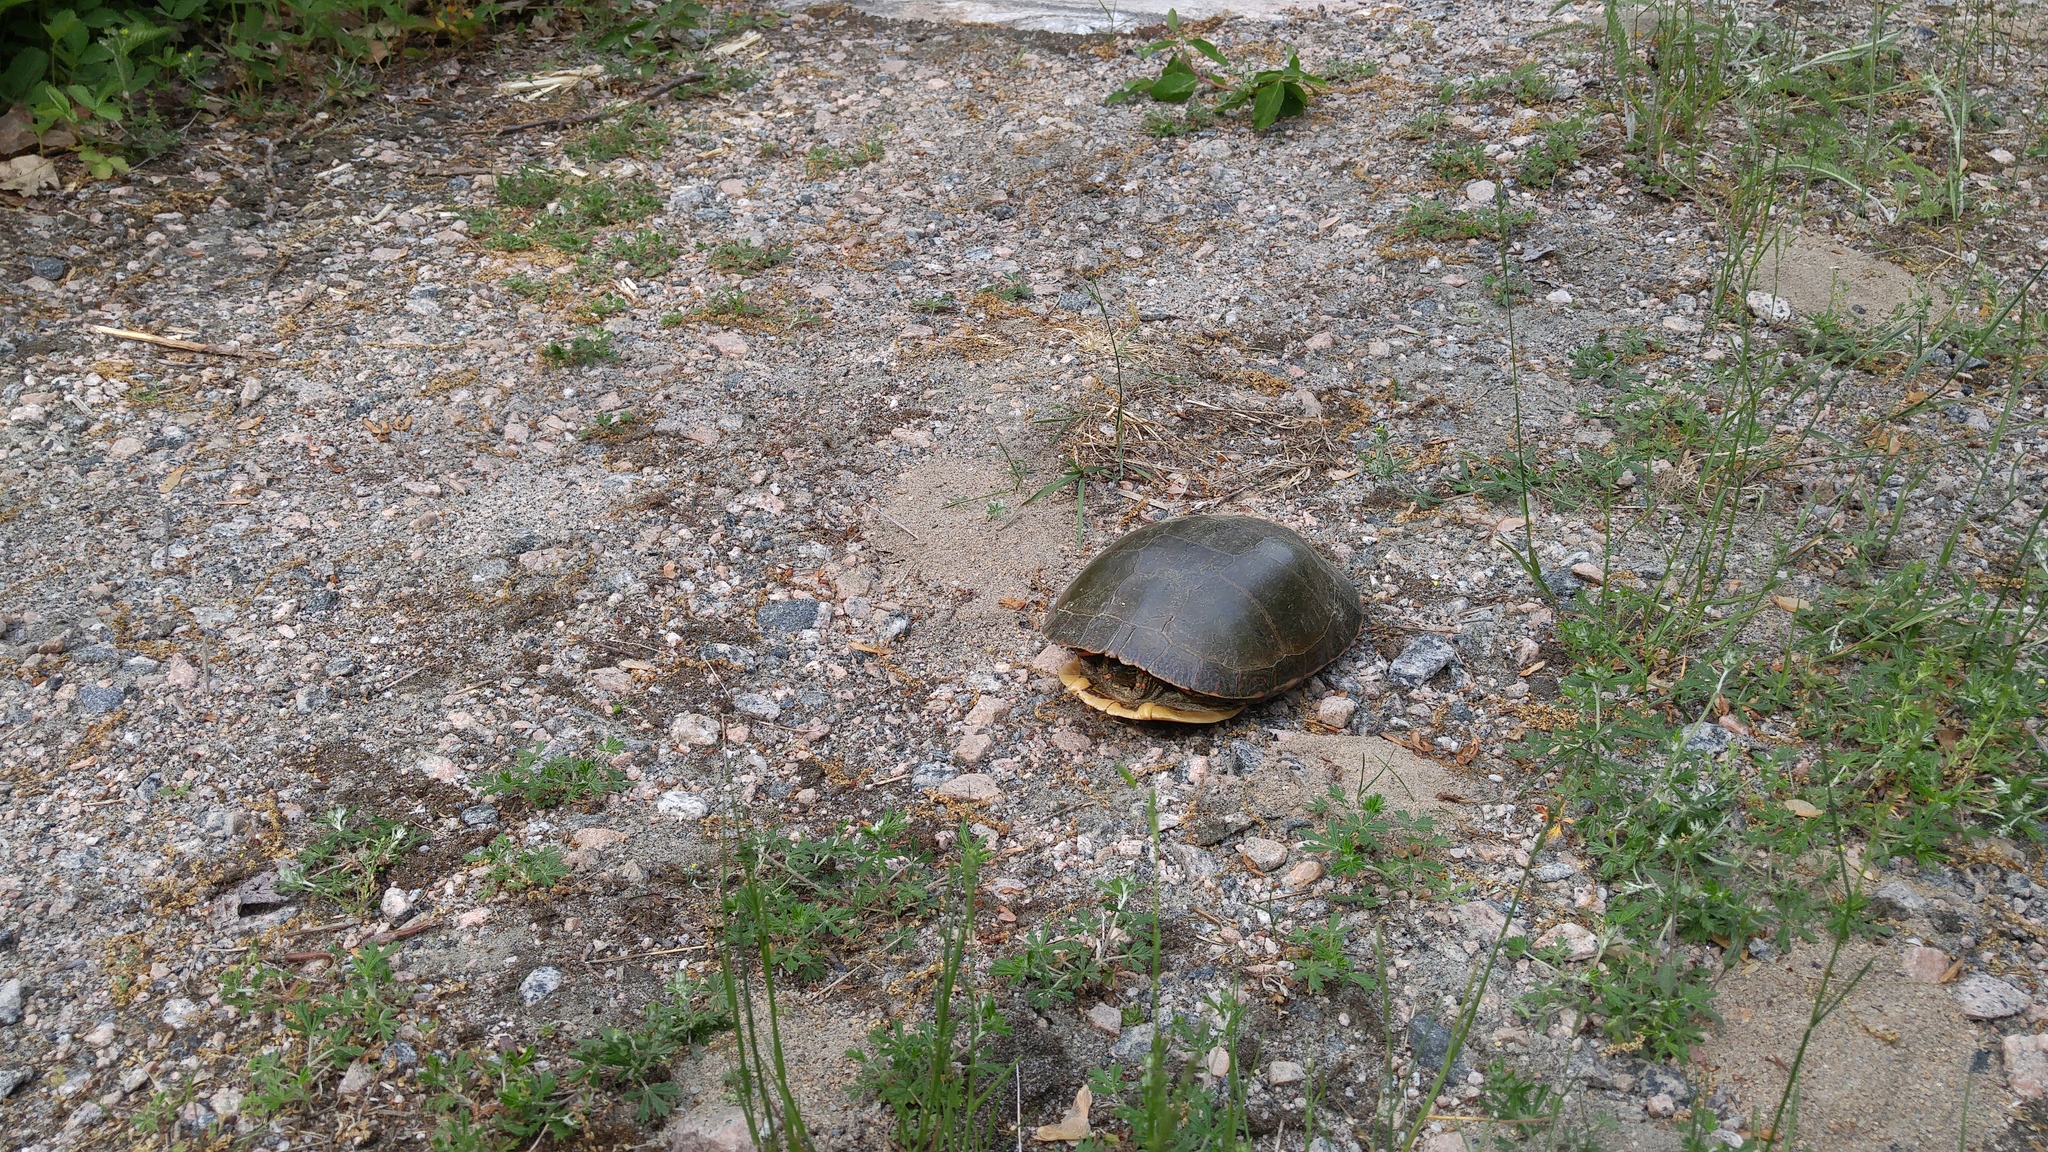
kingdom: Animalia
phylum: Chordata
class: Testudines
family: Emydidae
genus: Chrysemys
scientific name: Chrysemys picta
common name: Painted turtle
